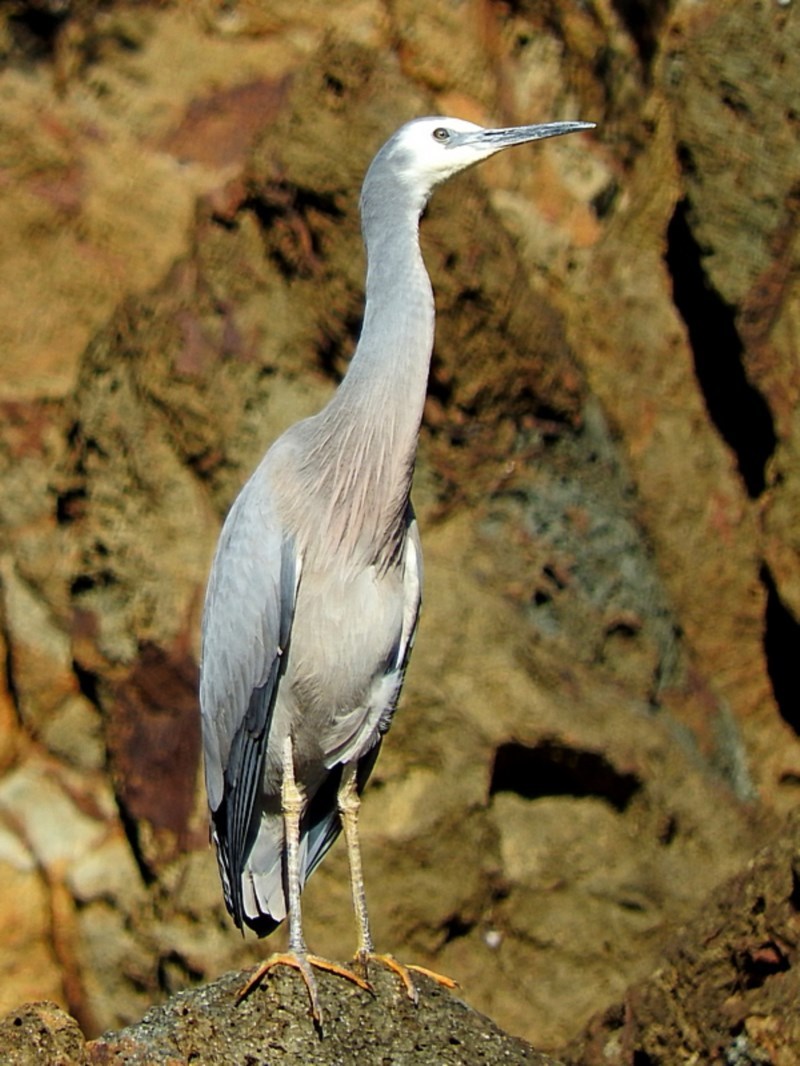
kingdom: Animalia
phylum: Chordata
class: Aves
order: Pelecaniformes
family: Ardeidae
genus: Egretta
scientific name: Egretta novaehollandiae
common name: White-faced heron
